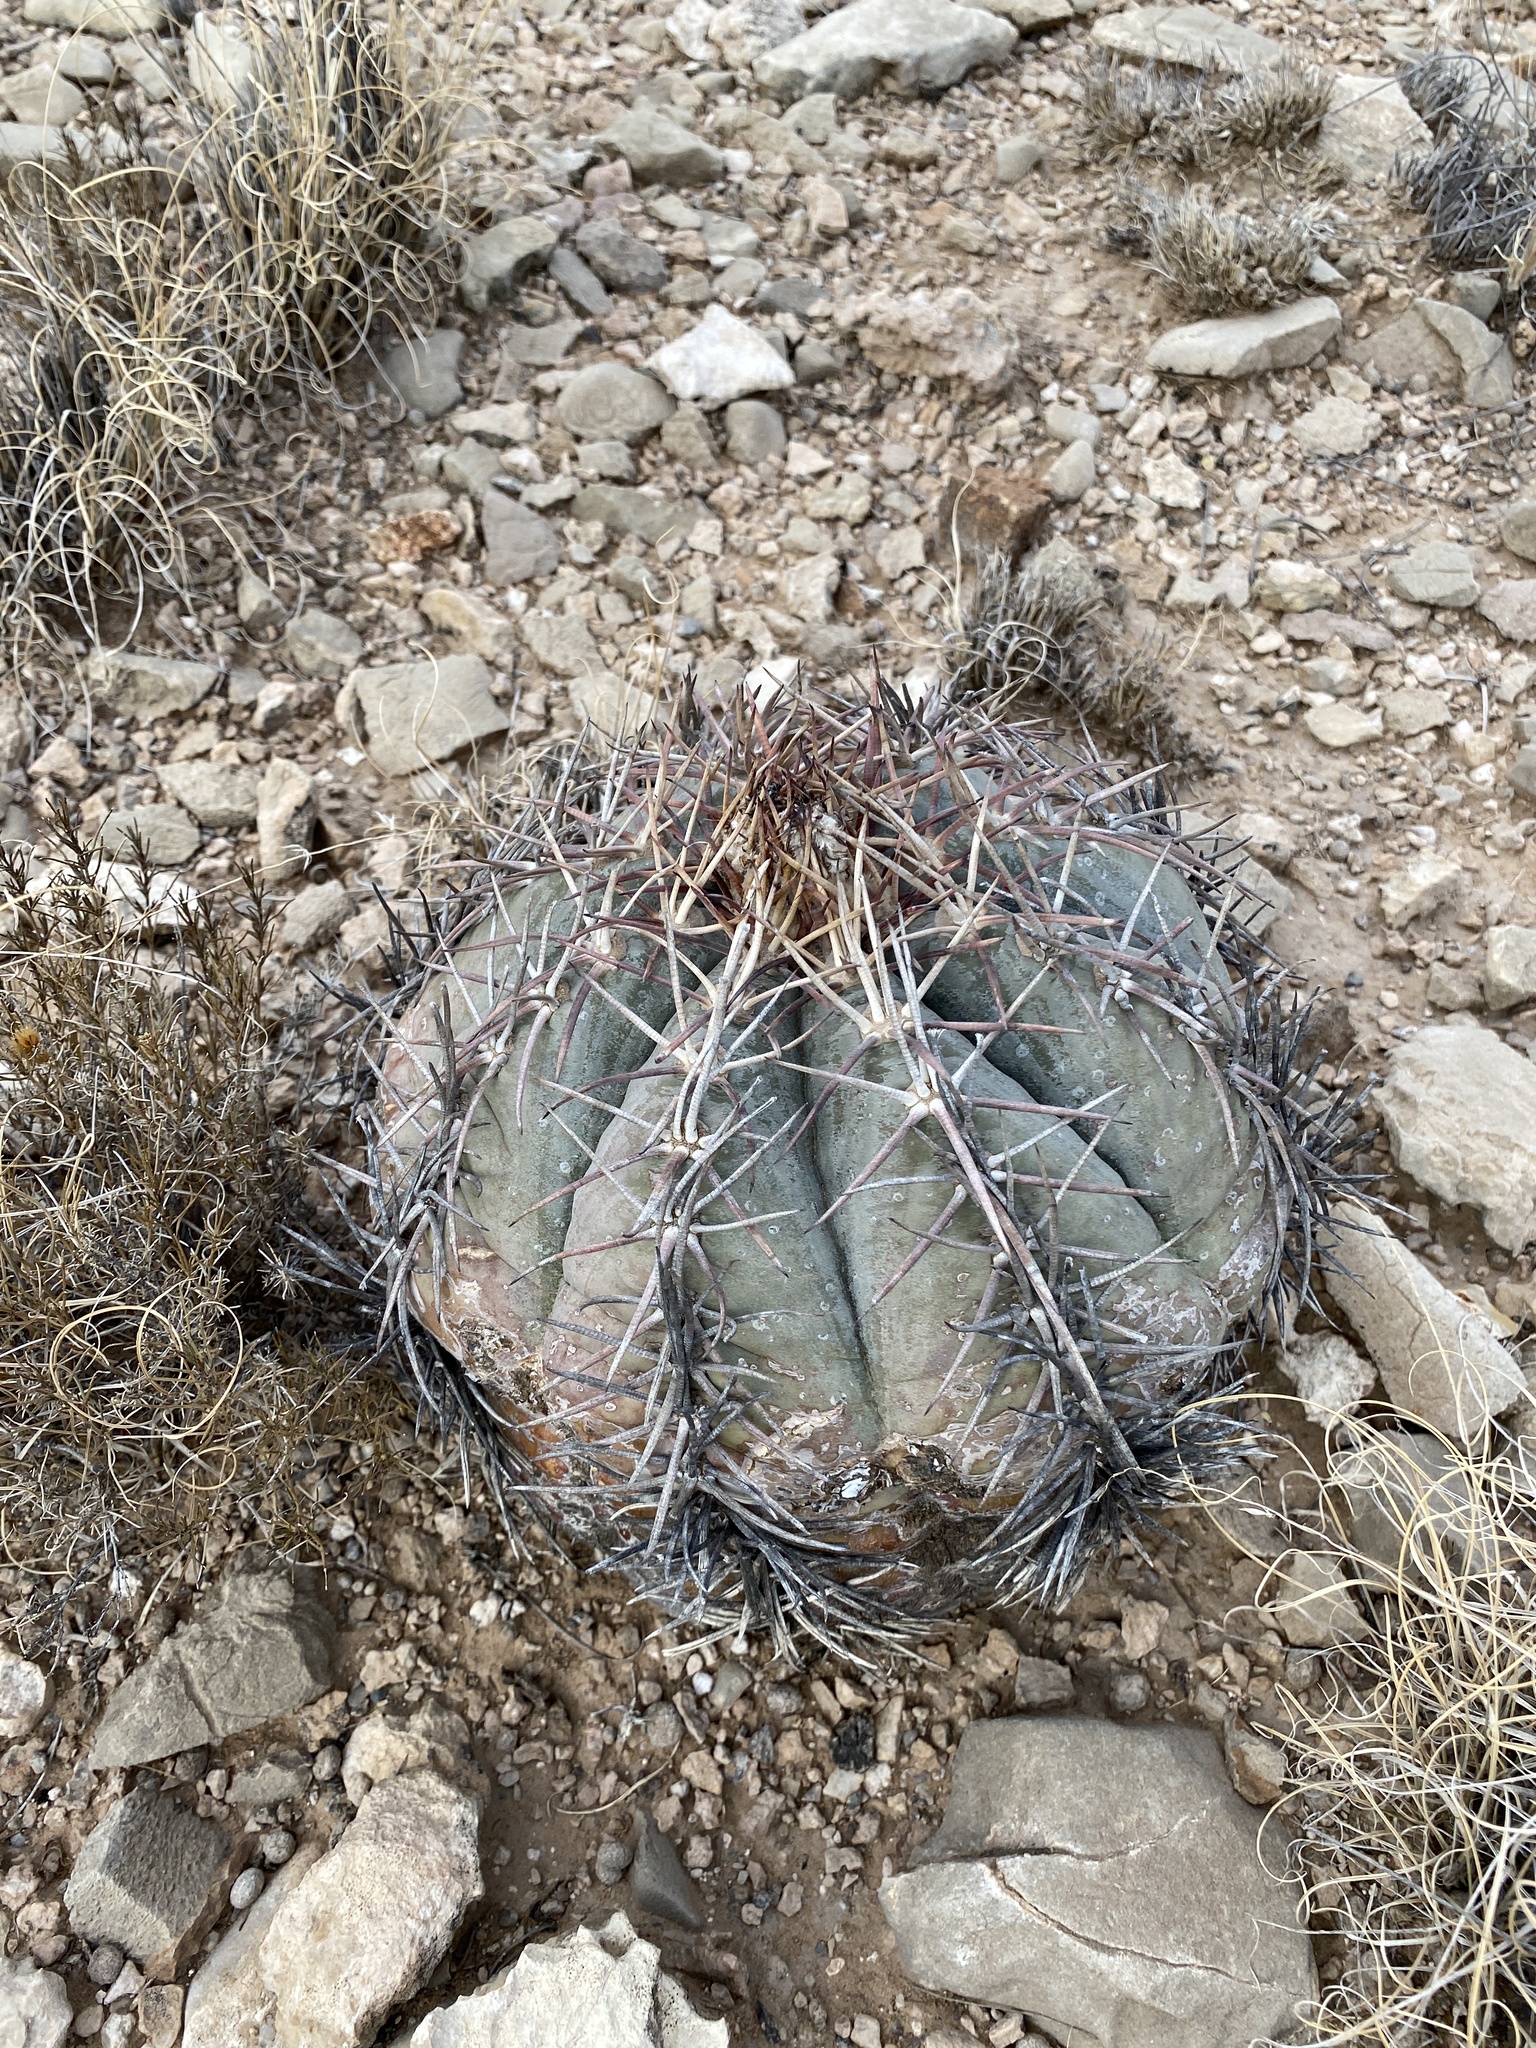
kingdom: Plantae
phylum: Tracheophyta
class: Magnoliopsida
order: Caryophyllales
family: Cactaceae
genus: Echinocactus
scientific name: Echinocactus horizonthalonius
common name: Devilshead
